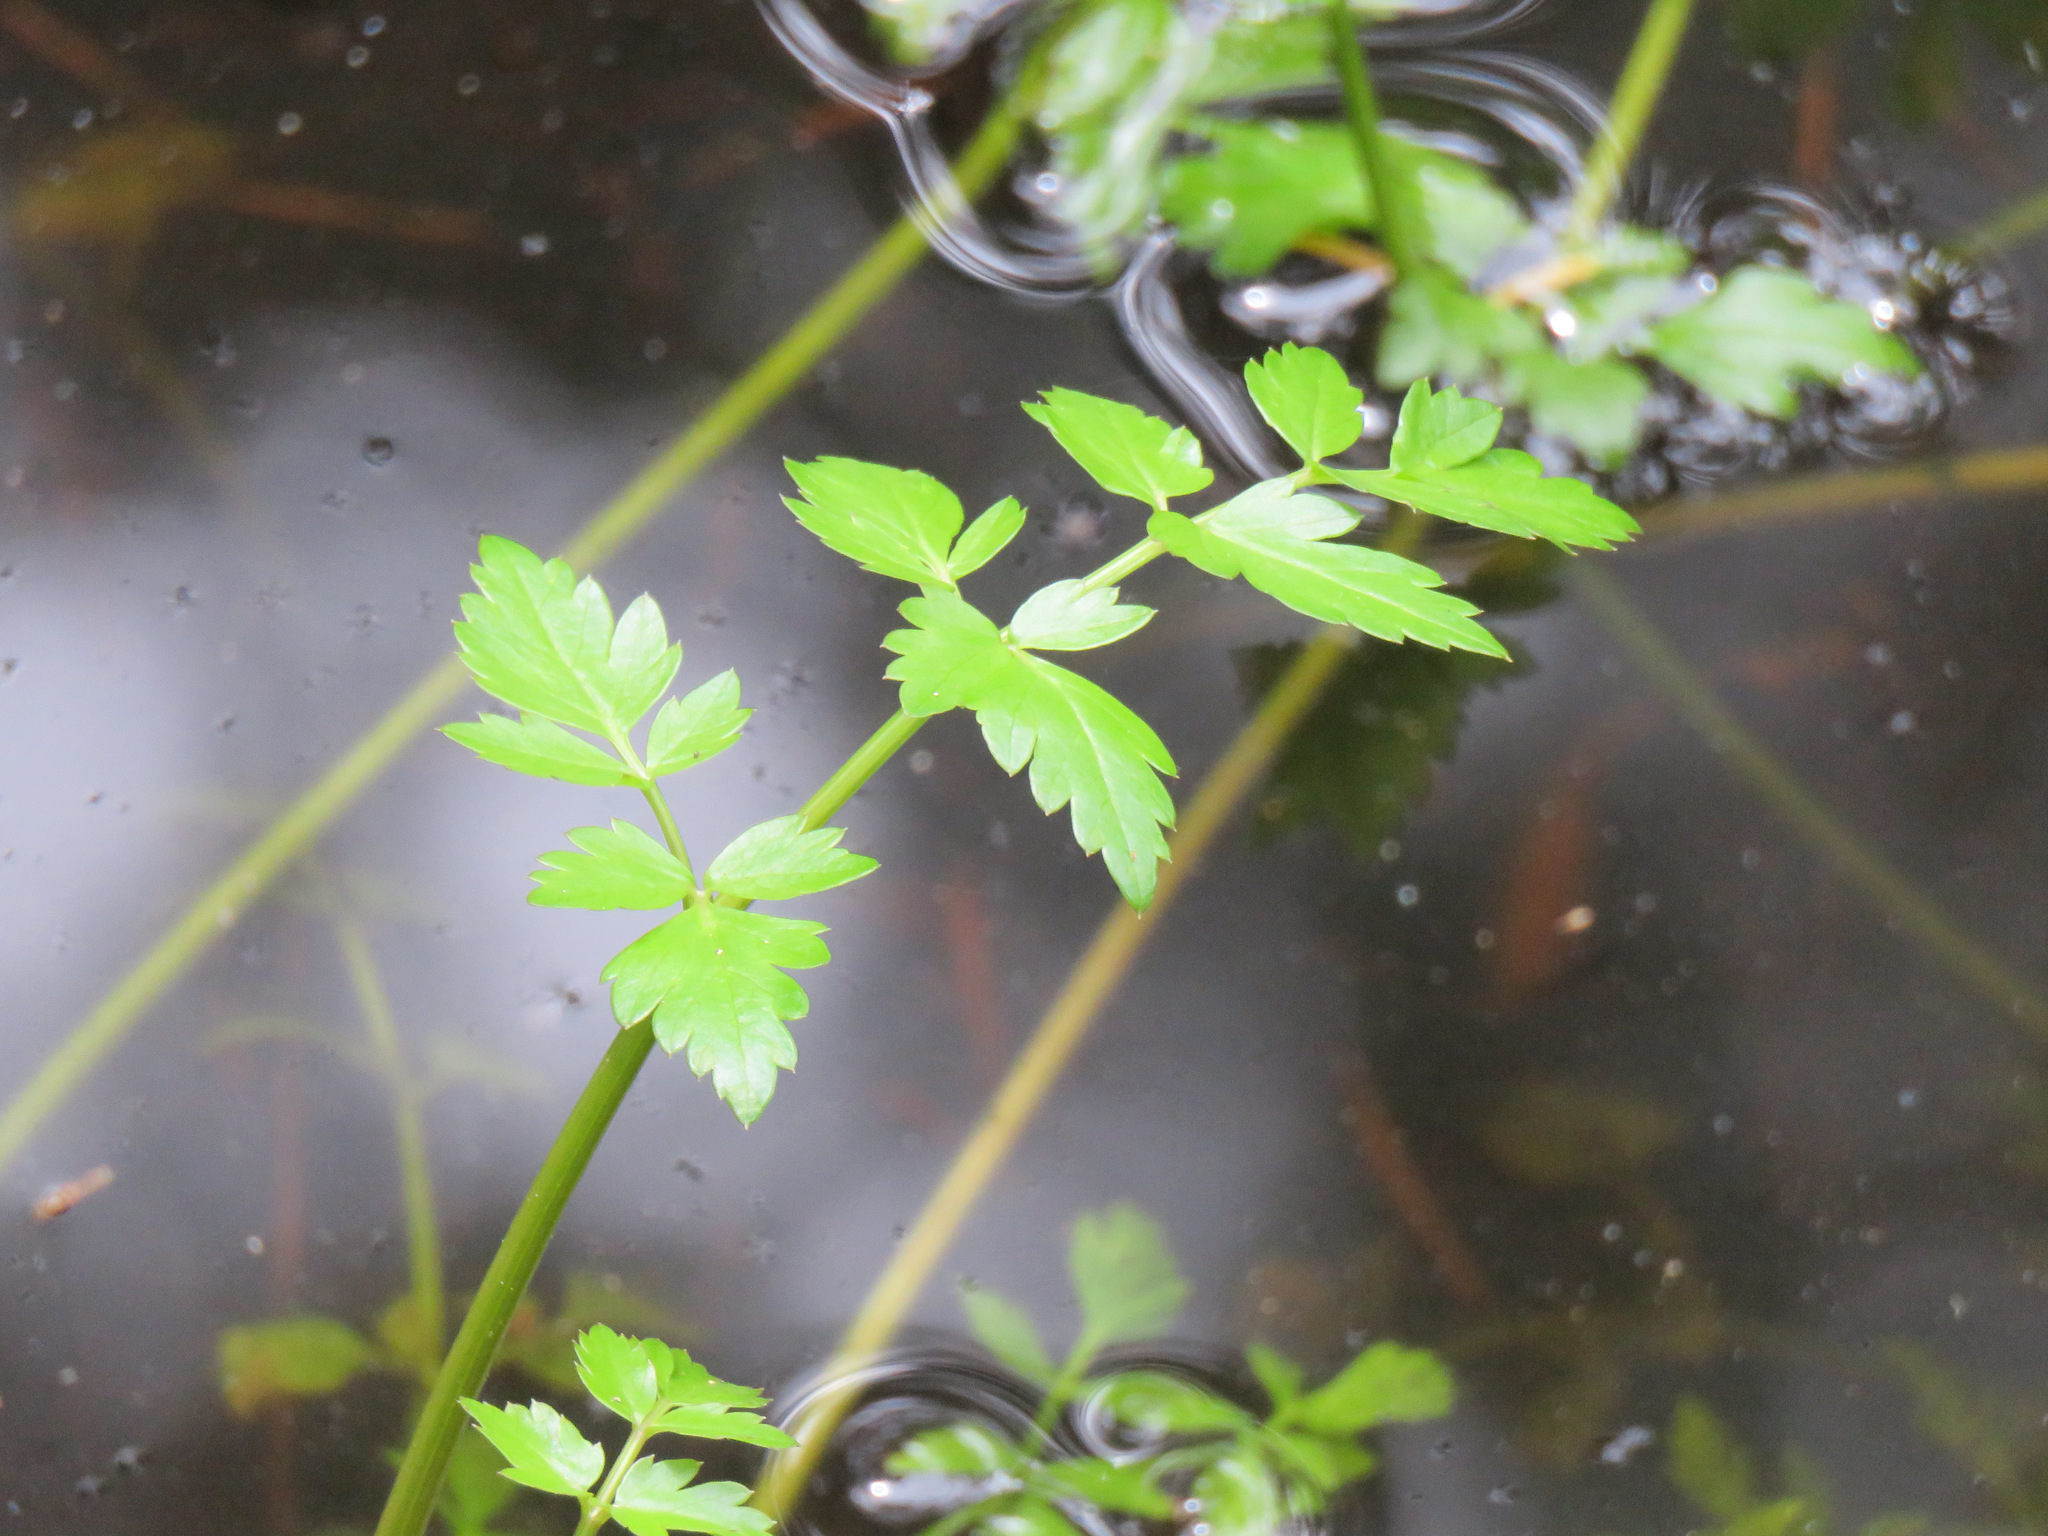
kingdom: Plantae
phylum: Tracheophyta
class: Magnoliopsida
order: Apiales
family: Apiaceae
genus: Oenanthe
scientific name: Oenanthe sarmentosa
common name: American water-parsley
